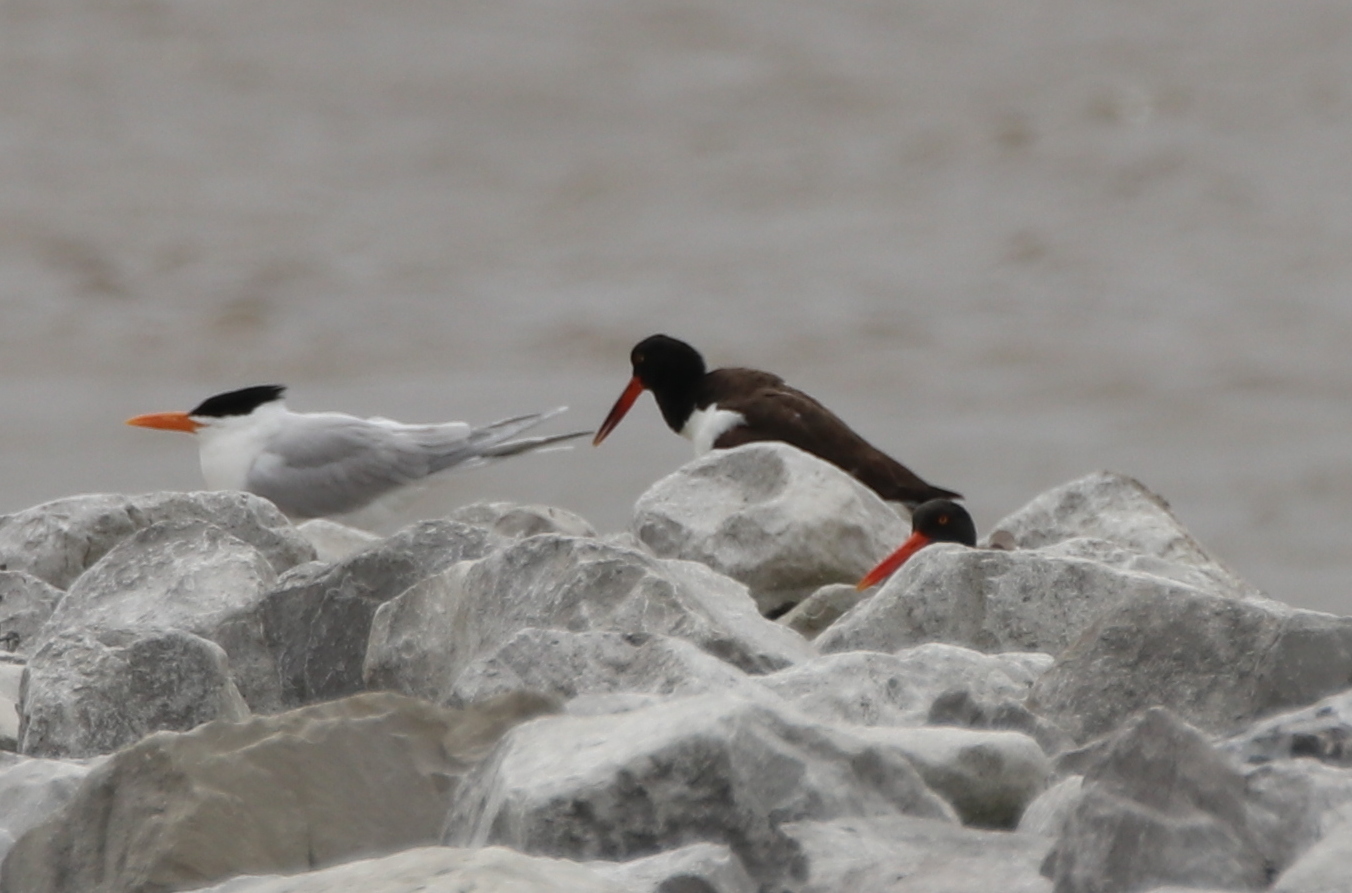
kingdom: Animalia
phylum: Chordata
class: Aves
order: Charadriiformes
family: Haematopodidae
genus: Haematopus
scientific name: Haematopus palliatus
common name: American oystercatcher
